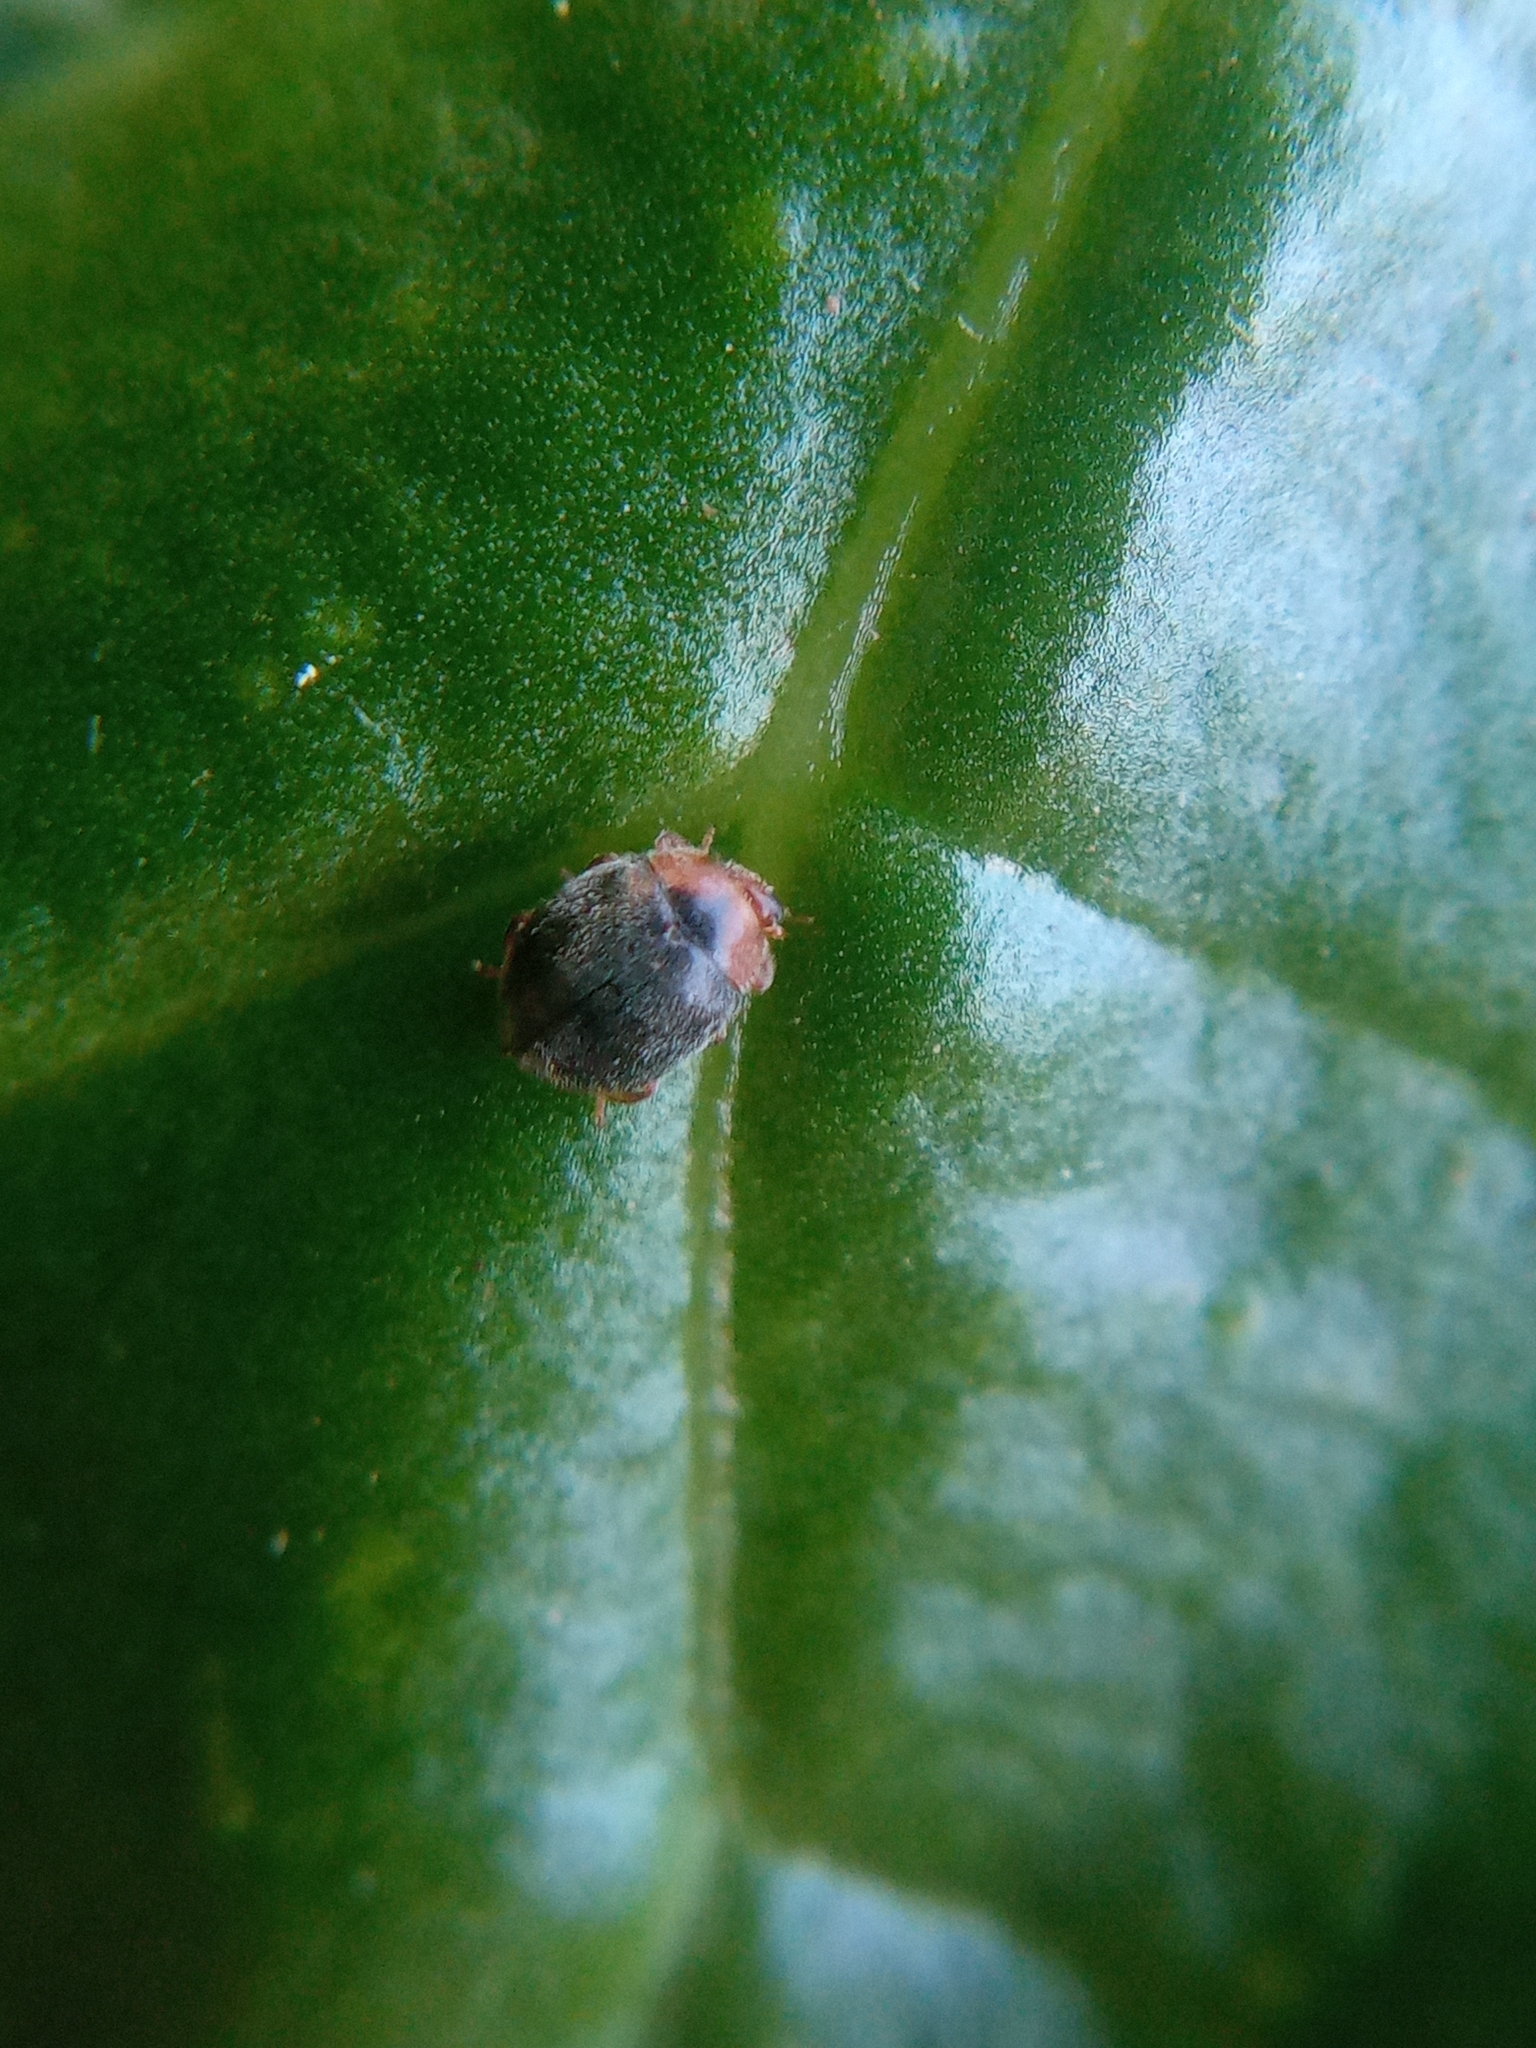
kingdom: Animalia
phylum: Arthropoda
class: Insecta
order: Coleoptera
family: Coccinellidae
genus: Scymnus
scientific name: Scymnus rubromaculatus
